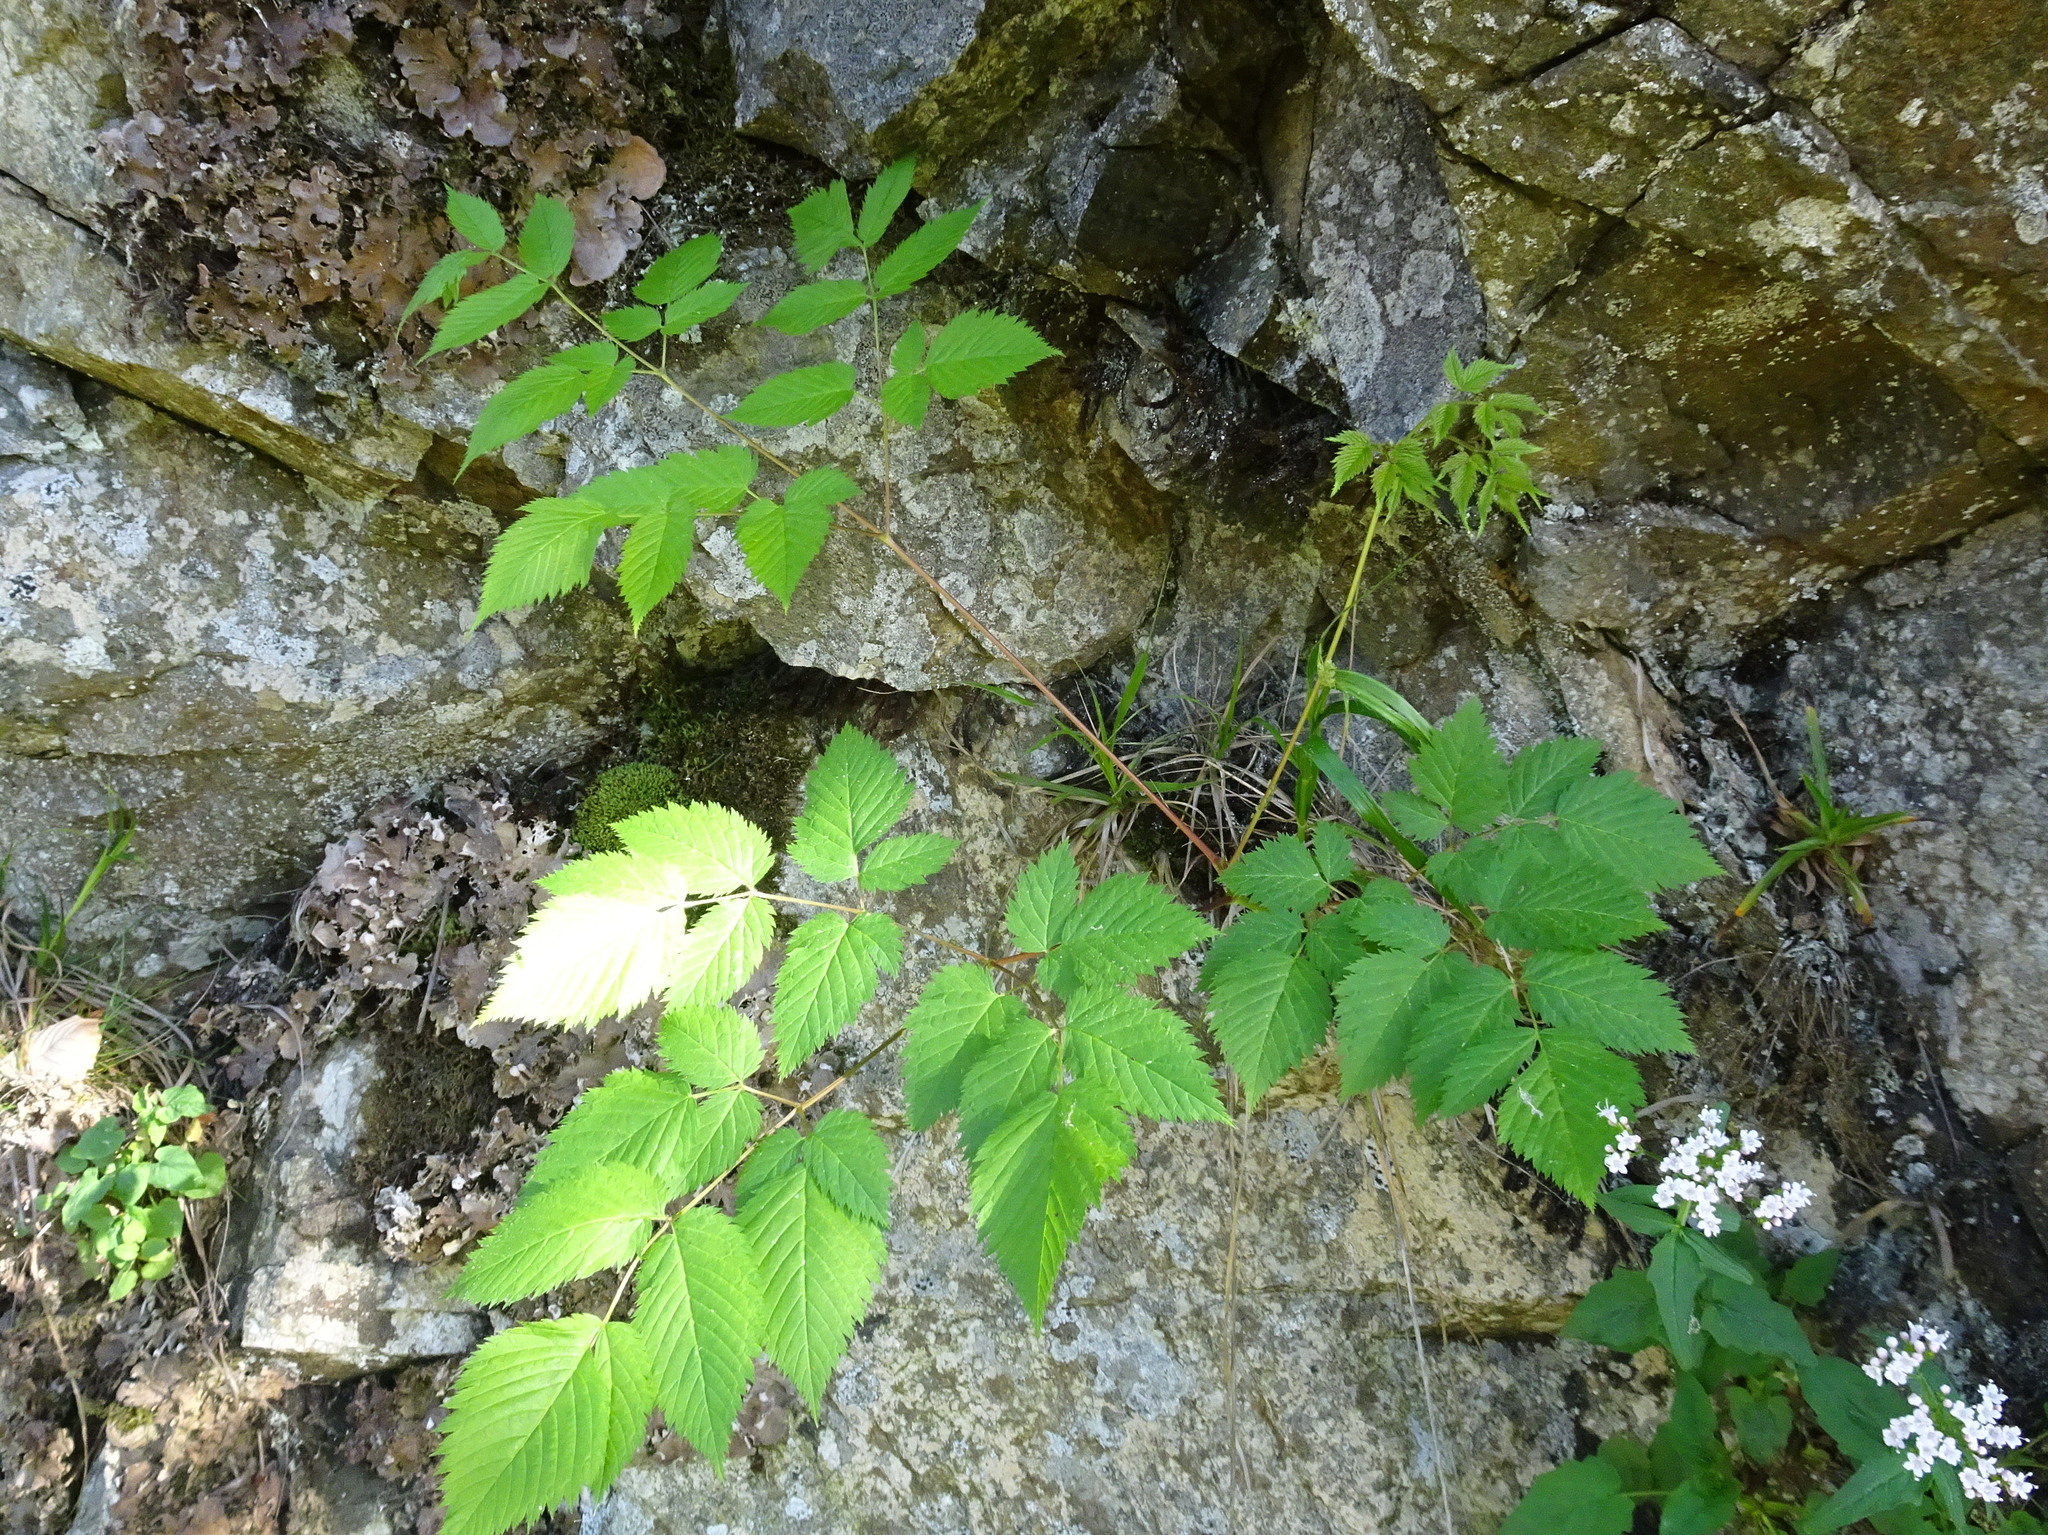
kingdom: Plantae
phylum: Tracheophyta
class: Magnoliopsida
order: Rosales
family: Rosaceae
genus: Aruncus
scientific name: Aruncus dioicus
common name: Buck's-beard
